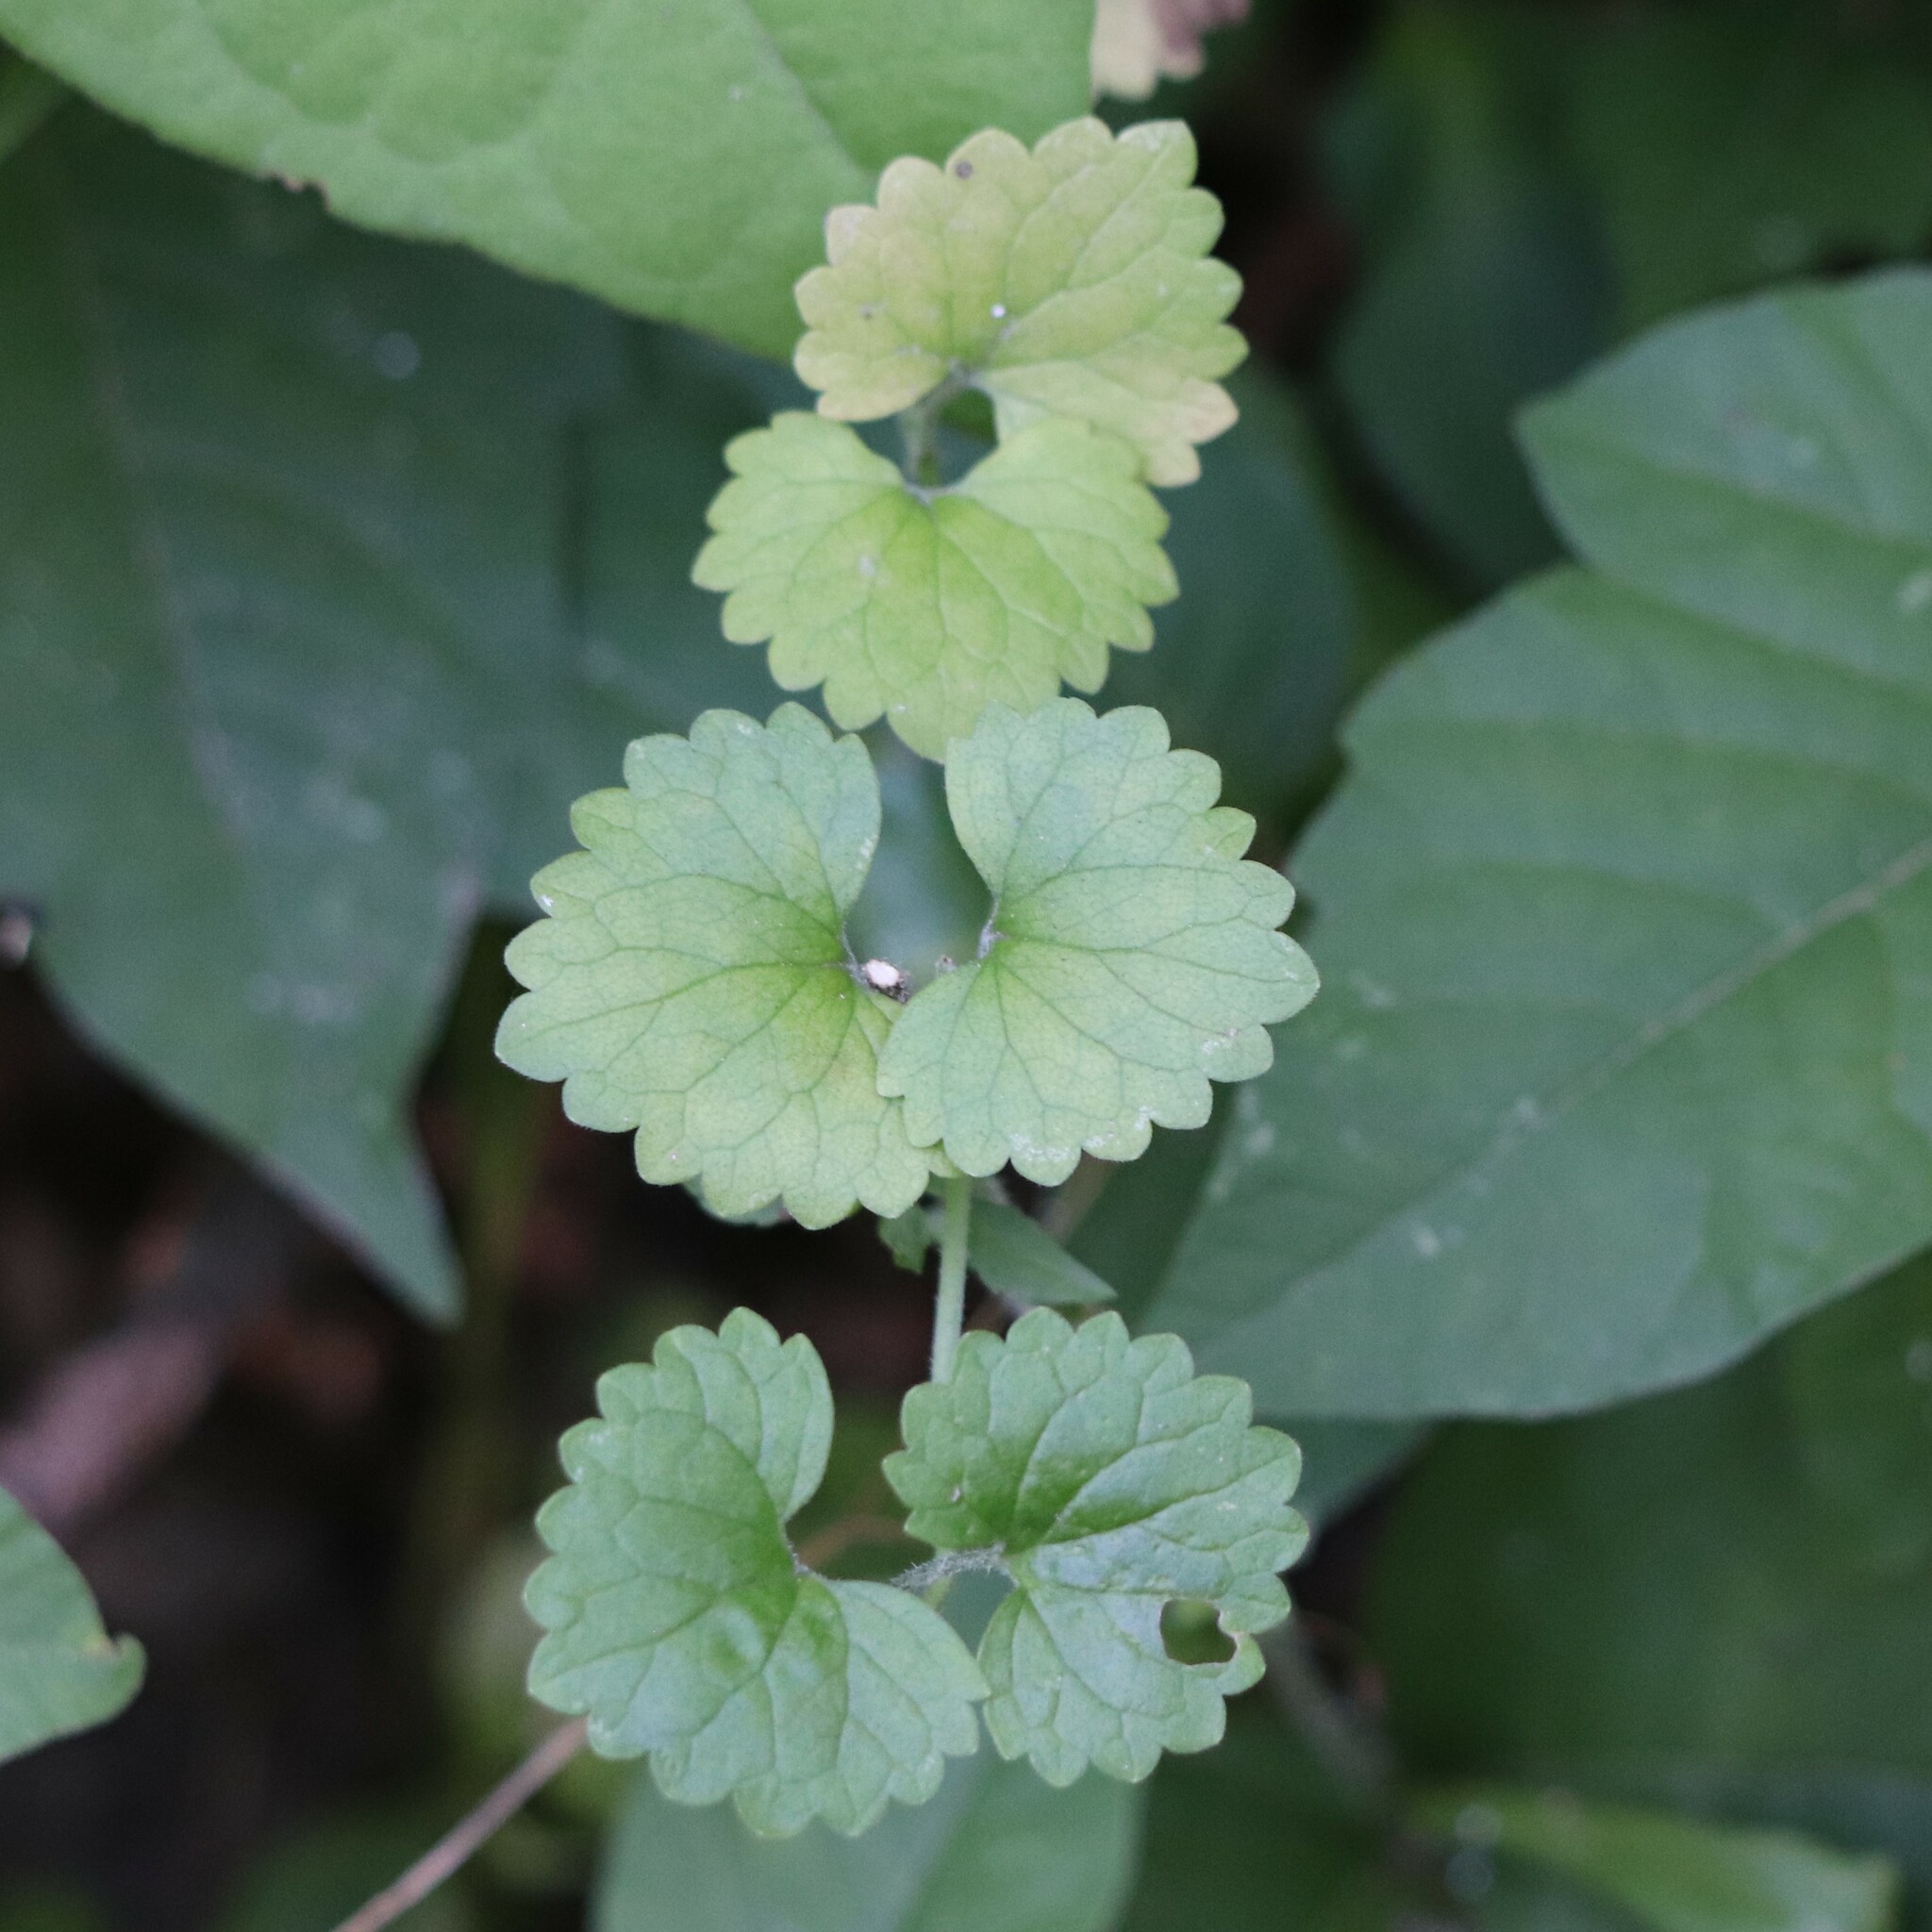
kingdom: Plantae
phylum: Tracheophyta
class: Magnoliopsida
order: Lamiales
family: Lamiaceae
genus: Glechoma
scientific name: Glechoma hederacea
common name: Ground ivy
